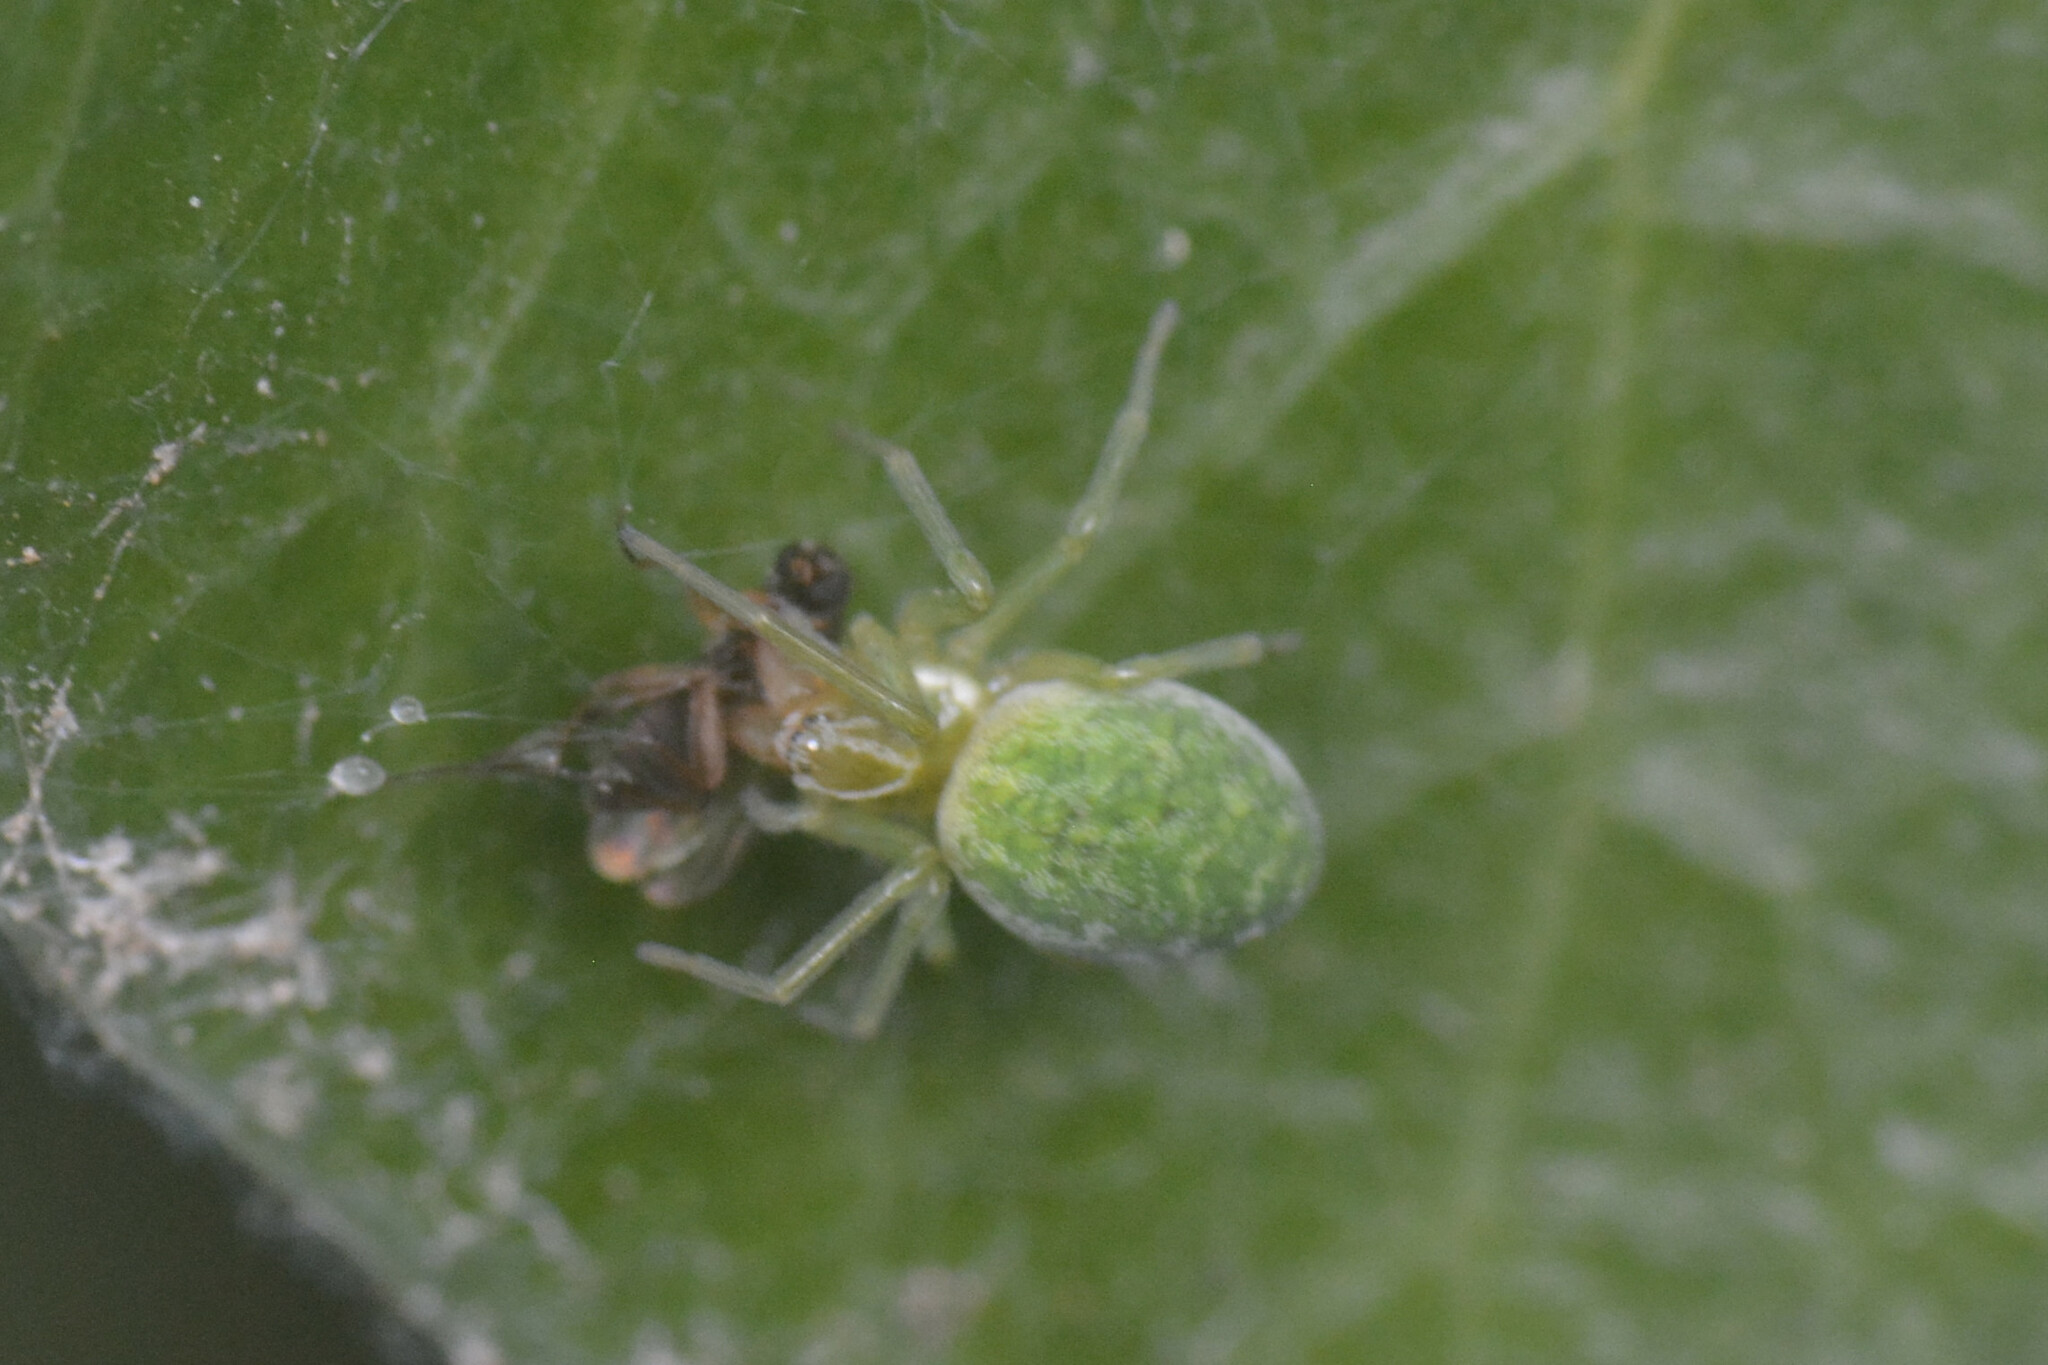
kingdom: Animalia
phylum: Arthropoda
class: Arachnida
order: Araneae
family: Dictynidae
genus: Nigma
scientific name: Nigma walckenaeri
